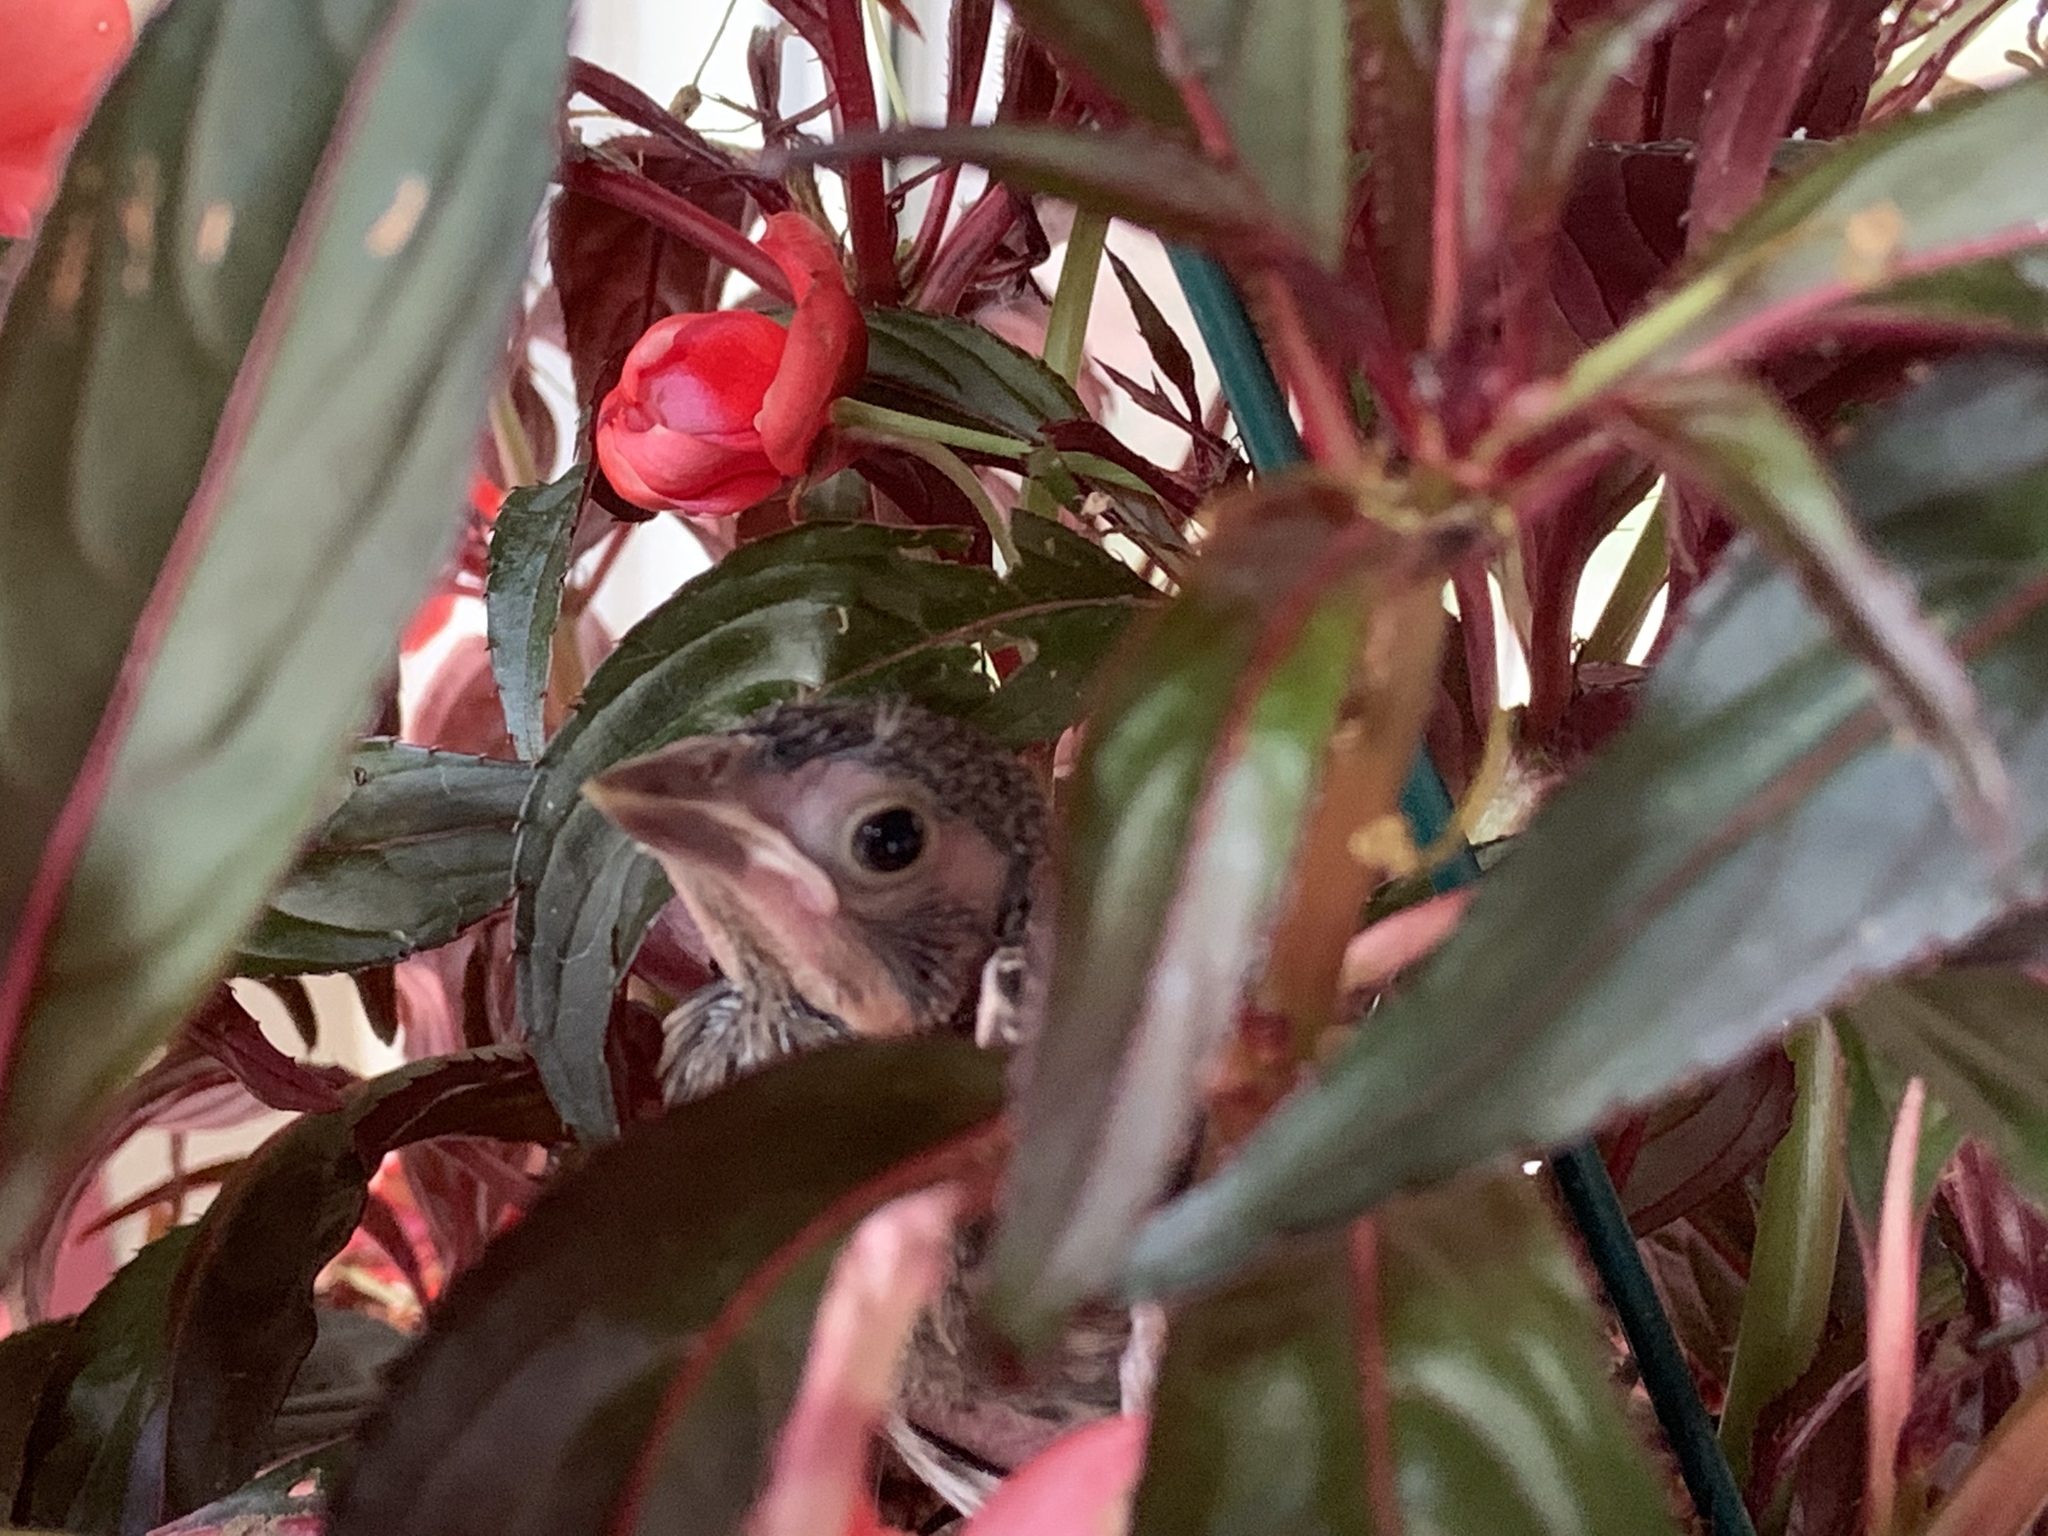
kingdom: Animalia
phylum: Chordata
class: Aves
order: Passeriformes
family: Icteridae
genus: Molothrus
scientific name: Molothrus ater
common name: Brown-headed cowbird
